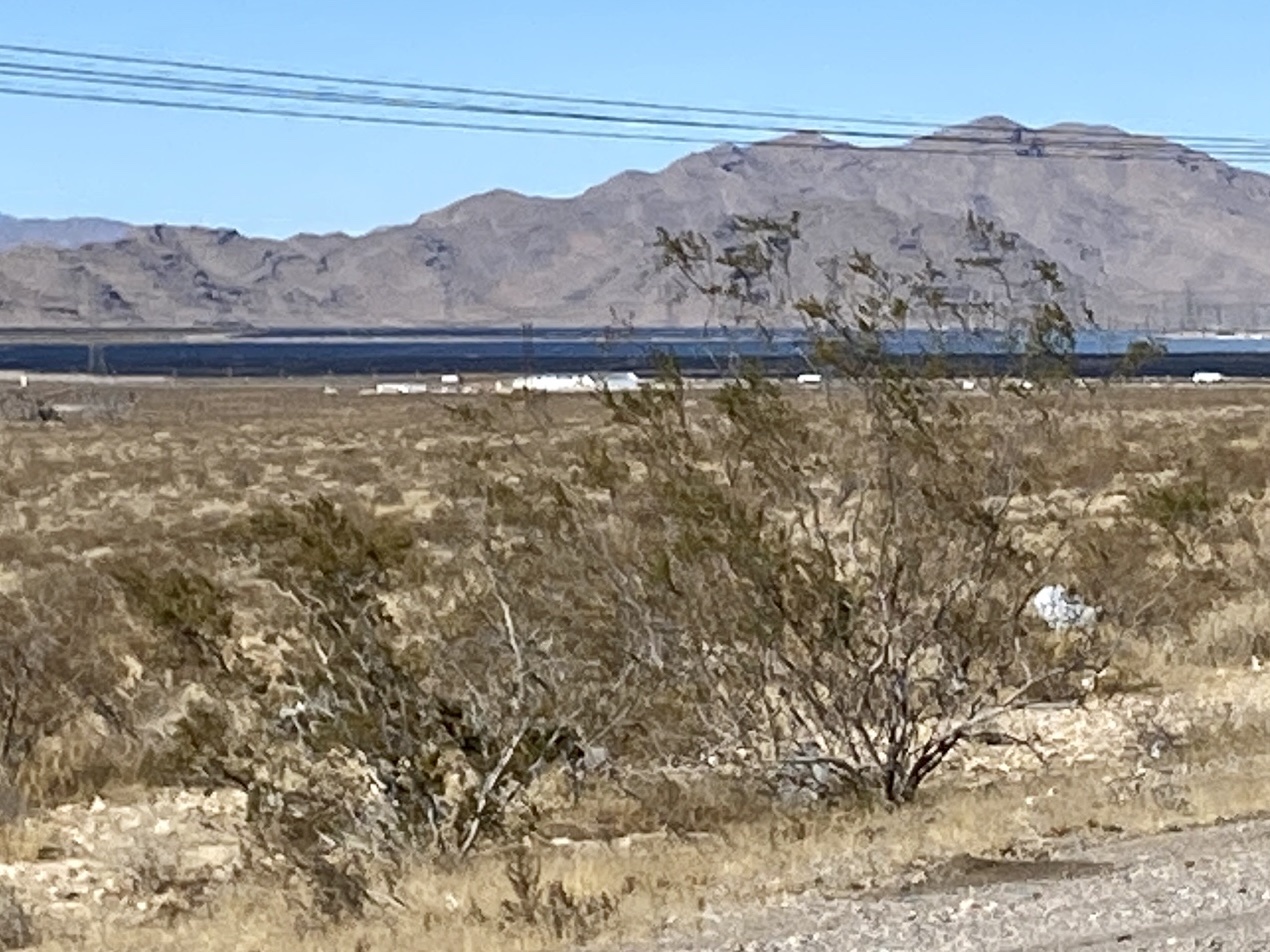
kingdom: Plantae
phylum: Tracheophyta
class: Magnoliopsida
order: Zygophyllales
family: Zygophyllaceae
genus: Larrea
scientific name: Larrea tridentata
